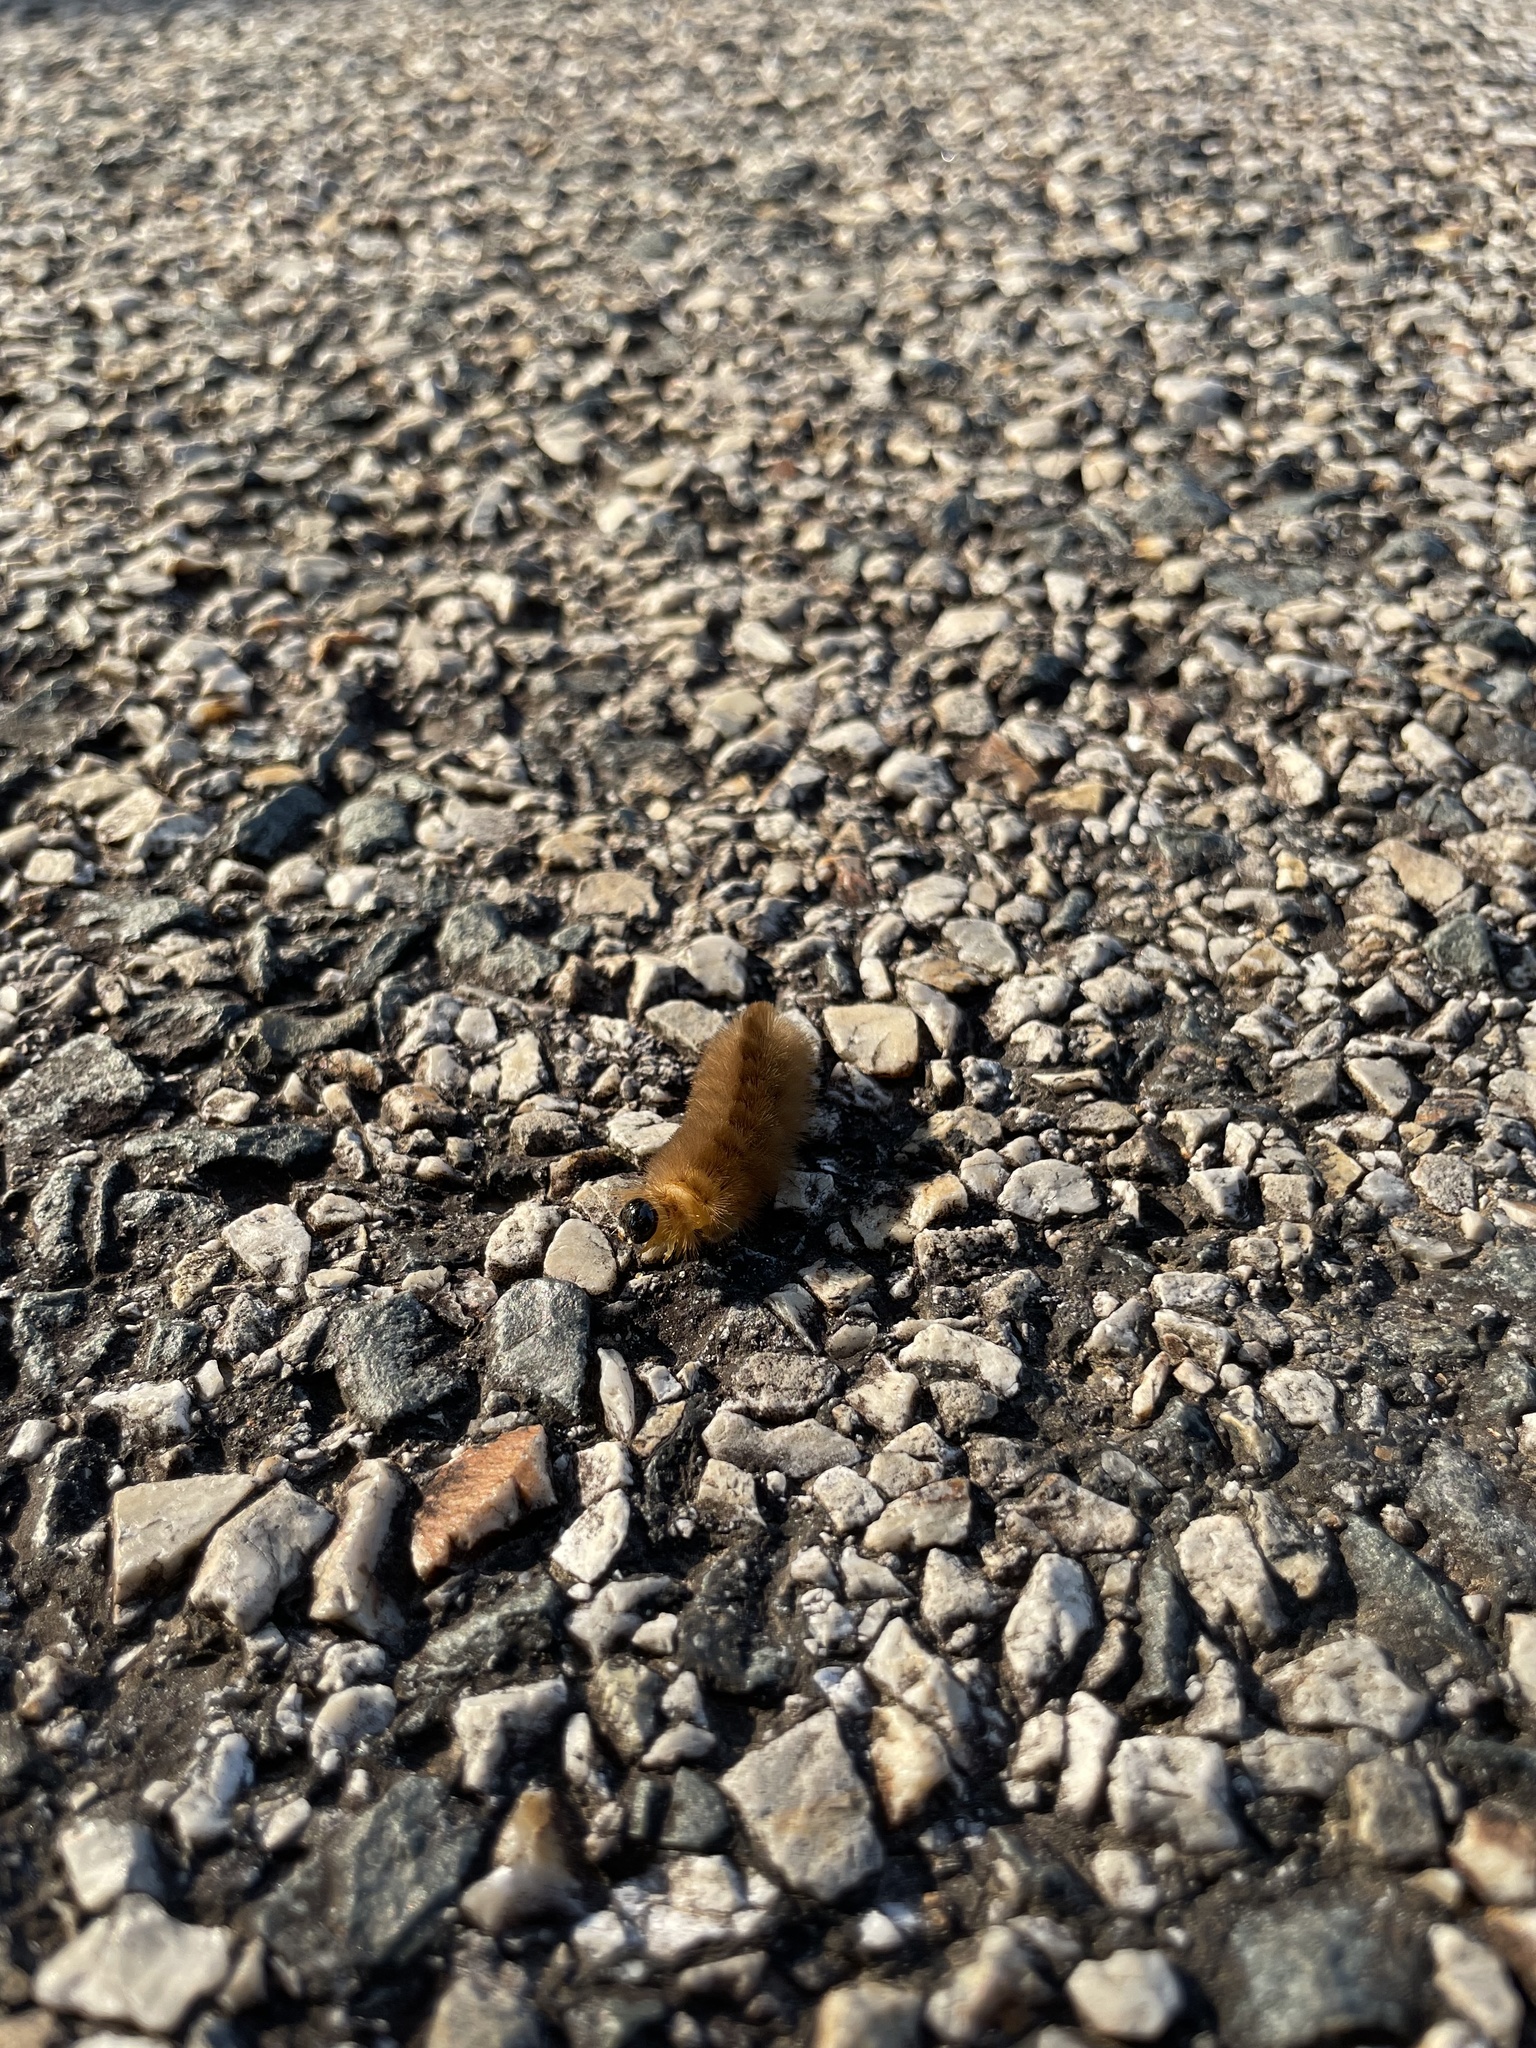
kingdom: Animalia
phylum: Arthropoda
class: Insecta
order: Lepidoptera
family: Erebidae
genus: Halysidota
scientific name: Halysidota tessellaris
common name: Banded tussock moth
